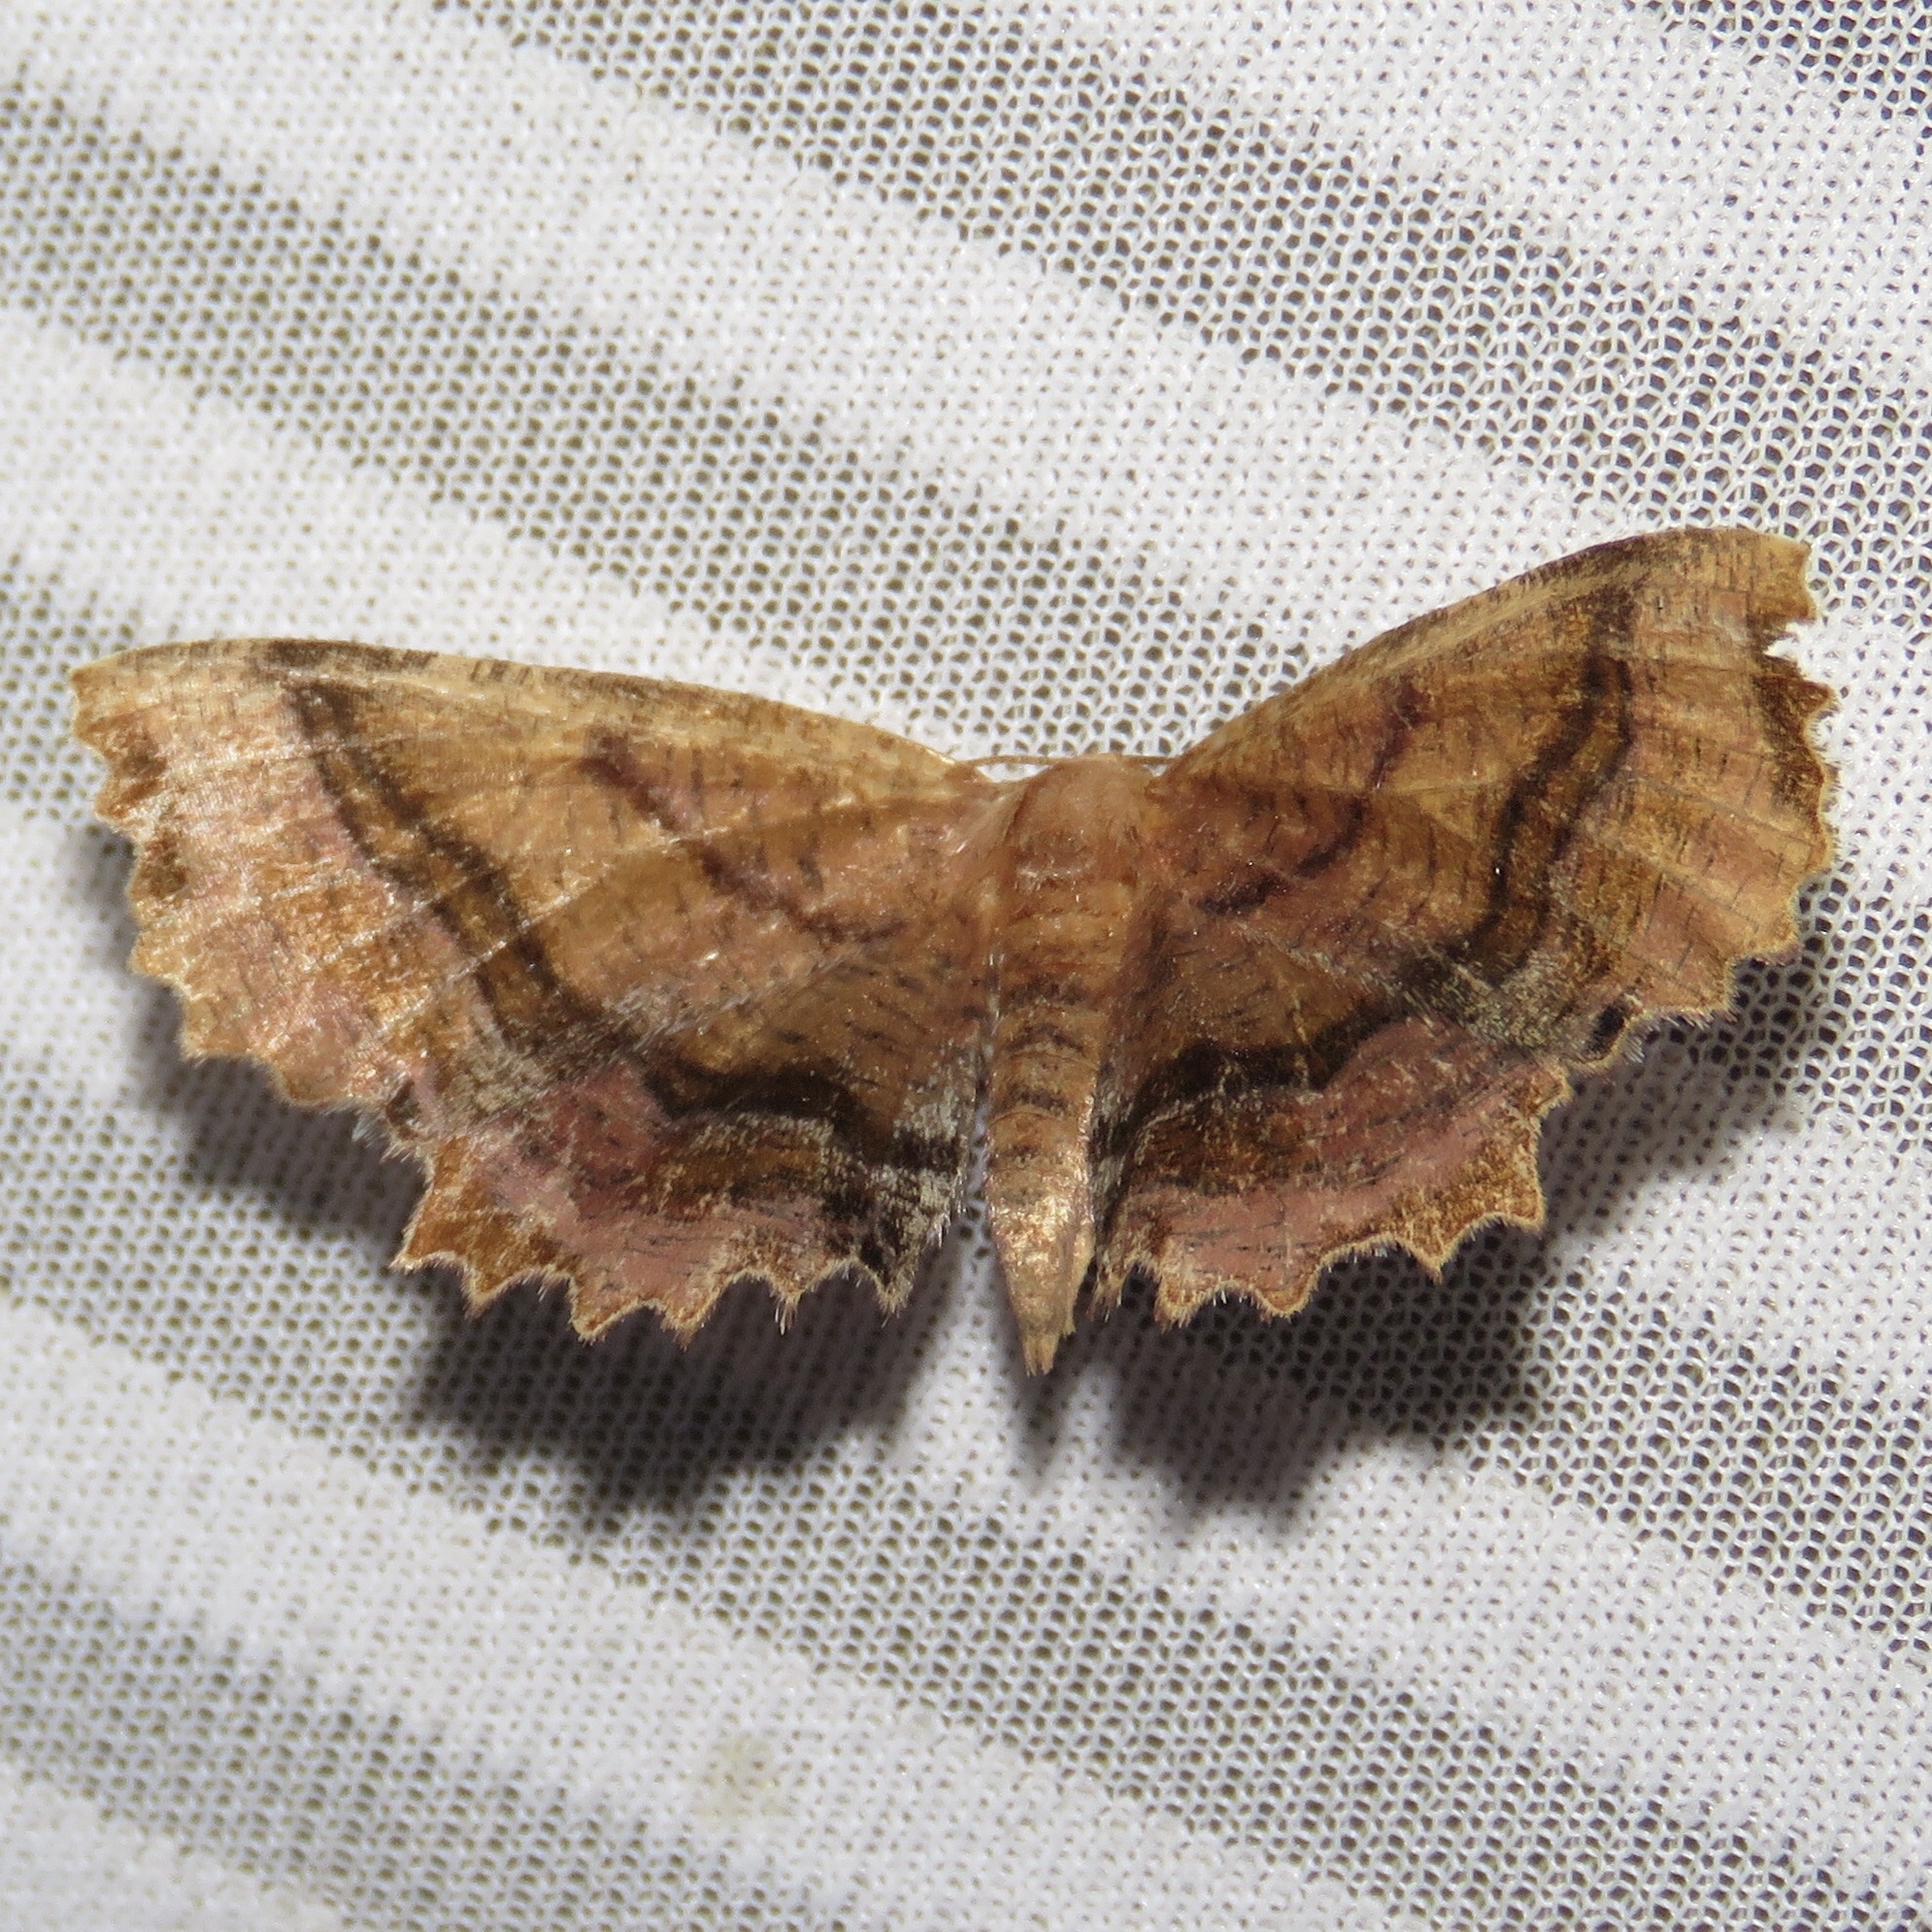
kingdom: Animalia
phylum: Arthropoda
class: Insecta
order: Lepidoptera
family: Geometridae
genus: Cepphis
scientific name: Cepphis armataria
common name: Scallop moth
